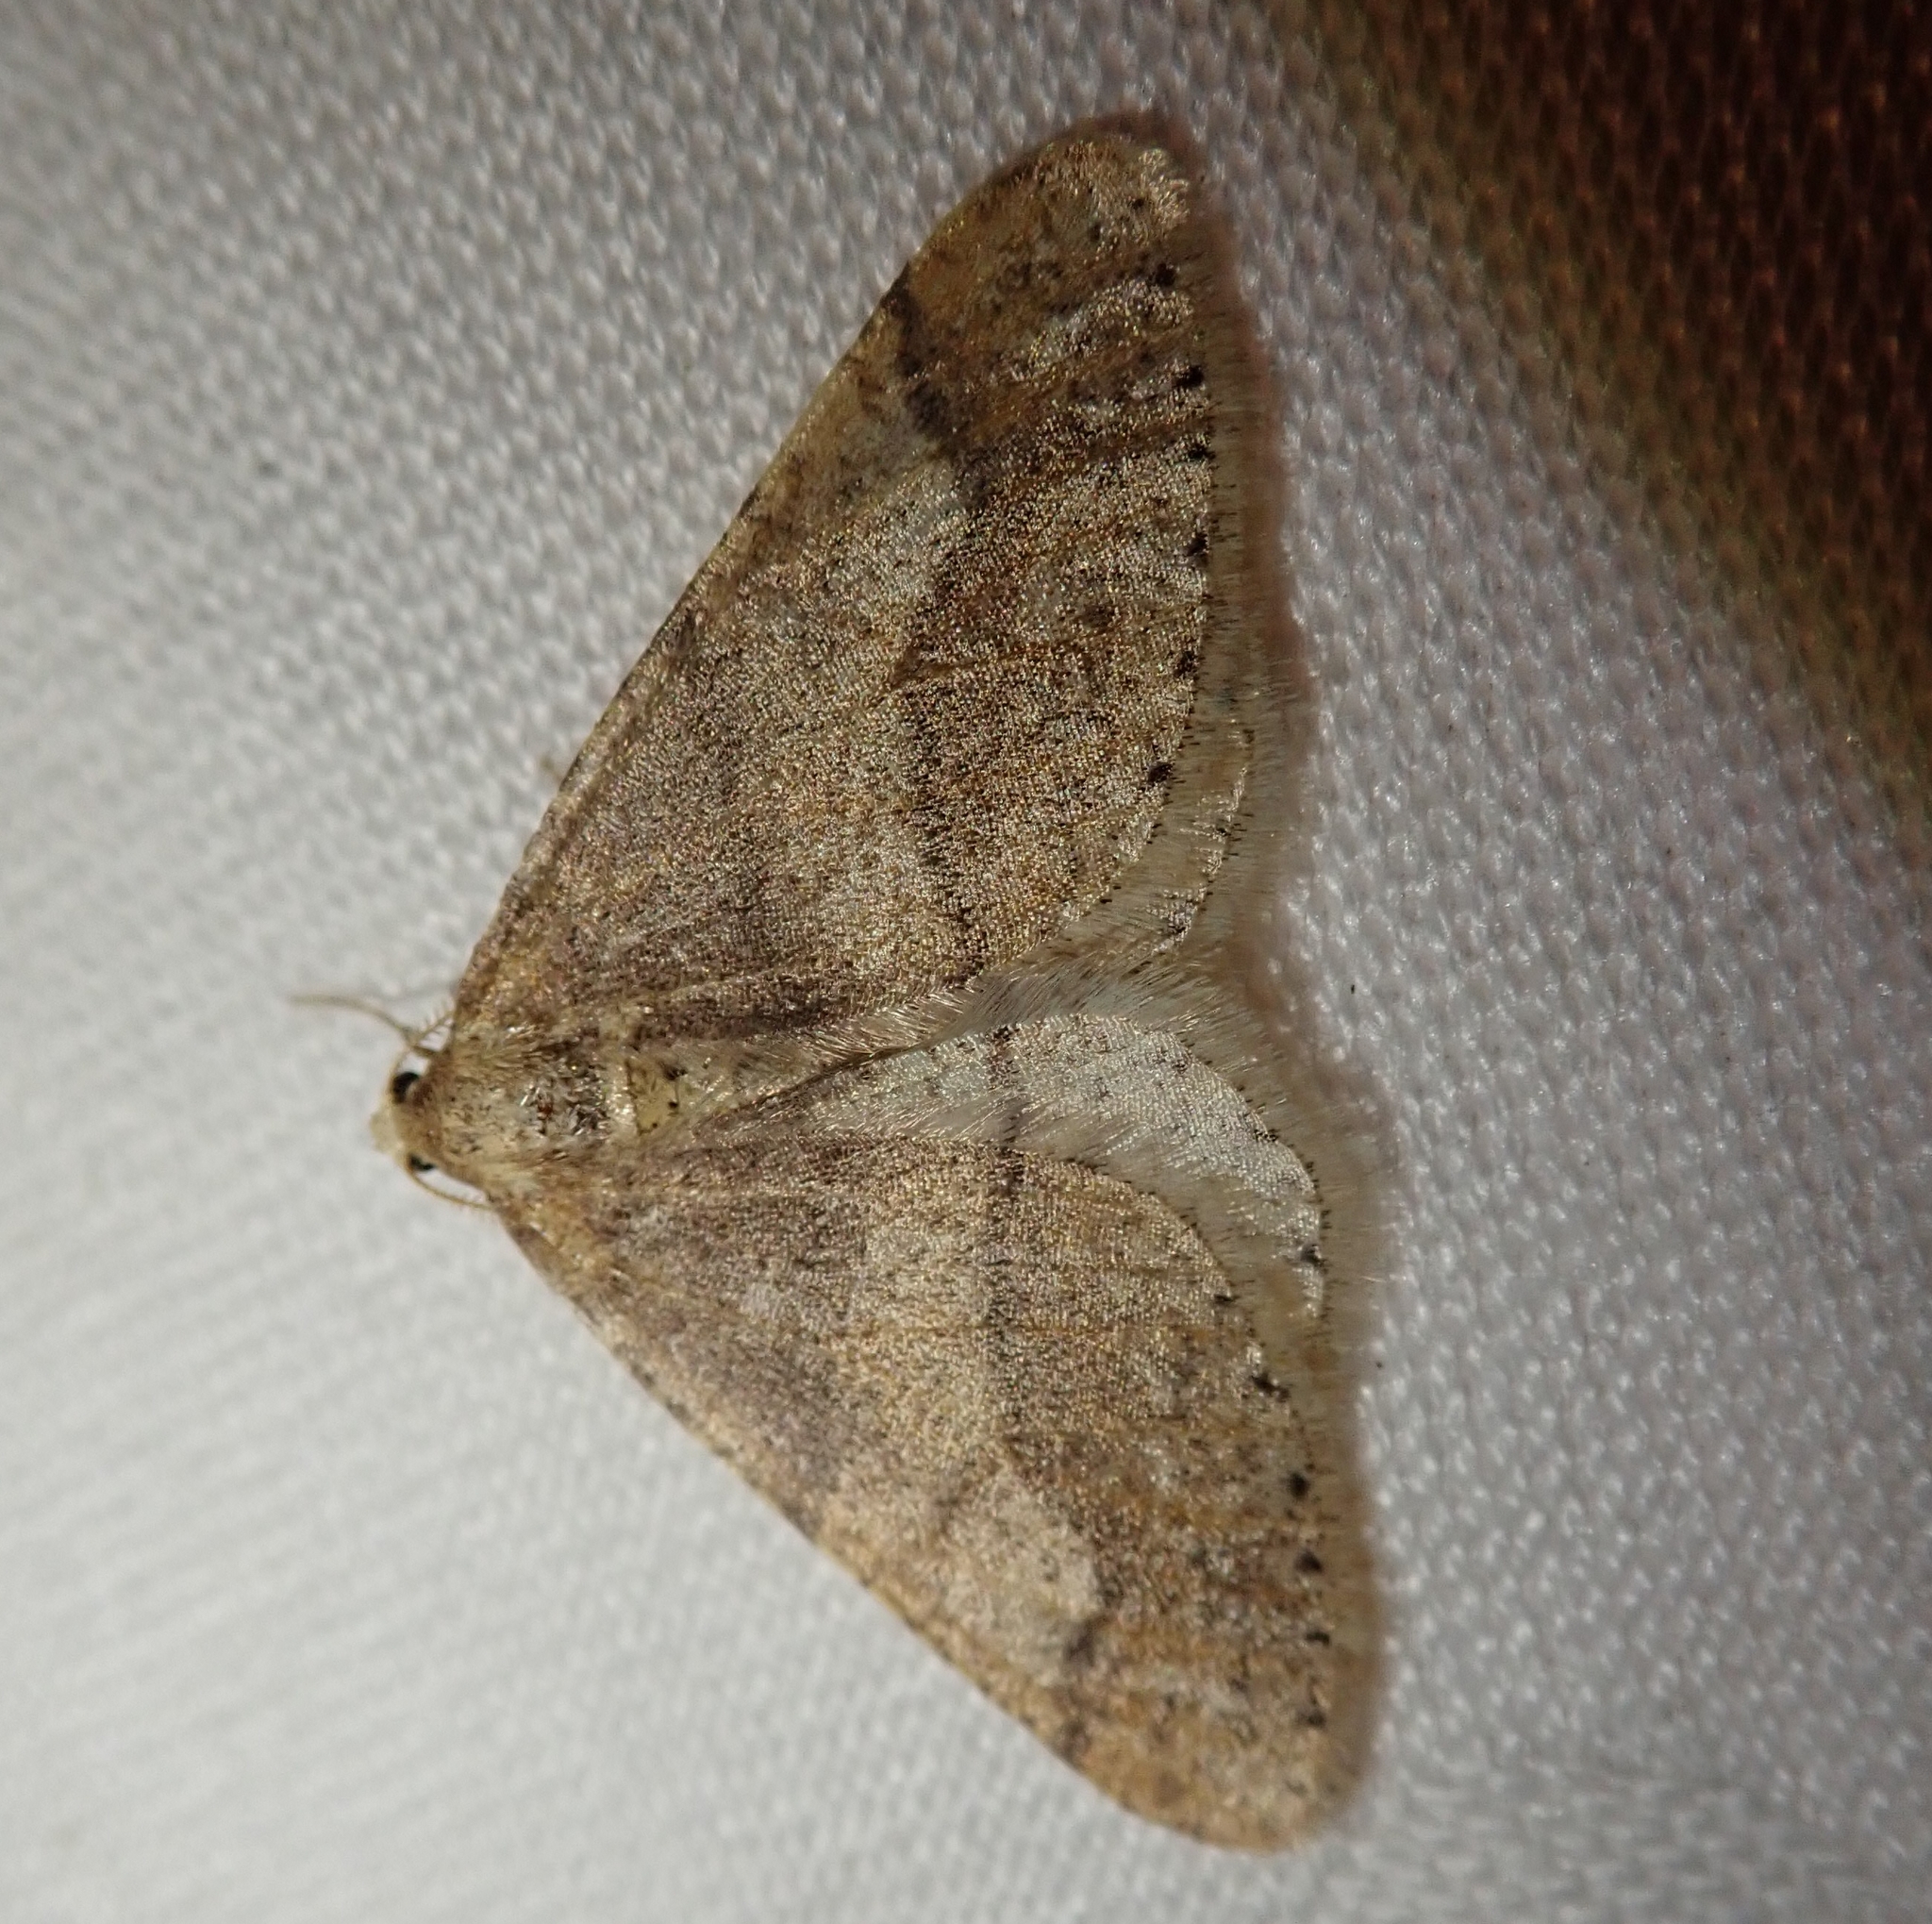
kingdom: Animalia
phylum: Arthropoda
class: Insecta
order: Lepidoptera
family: Geometridae
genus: Agriopis
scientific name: Agriopis marginaria
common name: Dotted border
